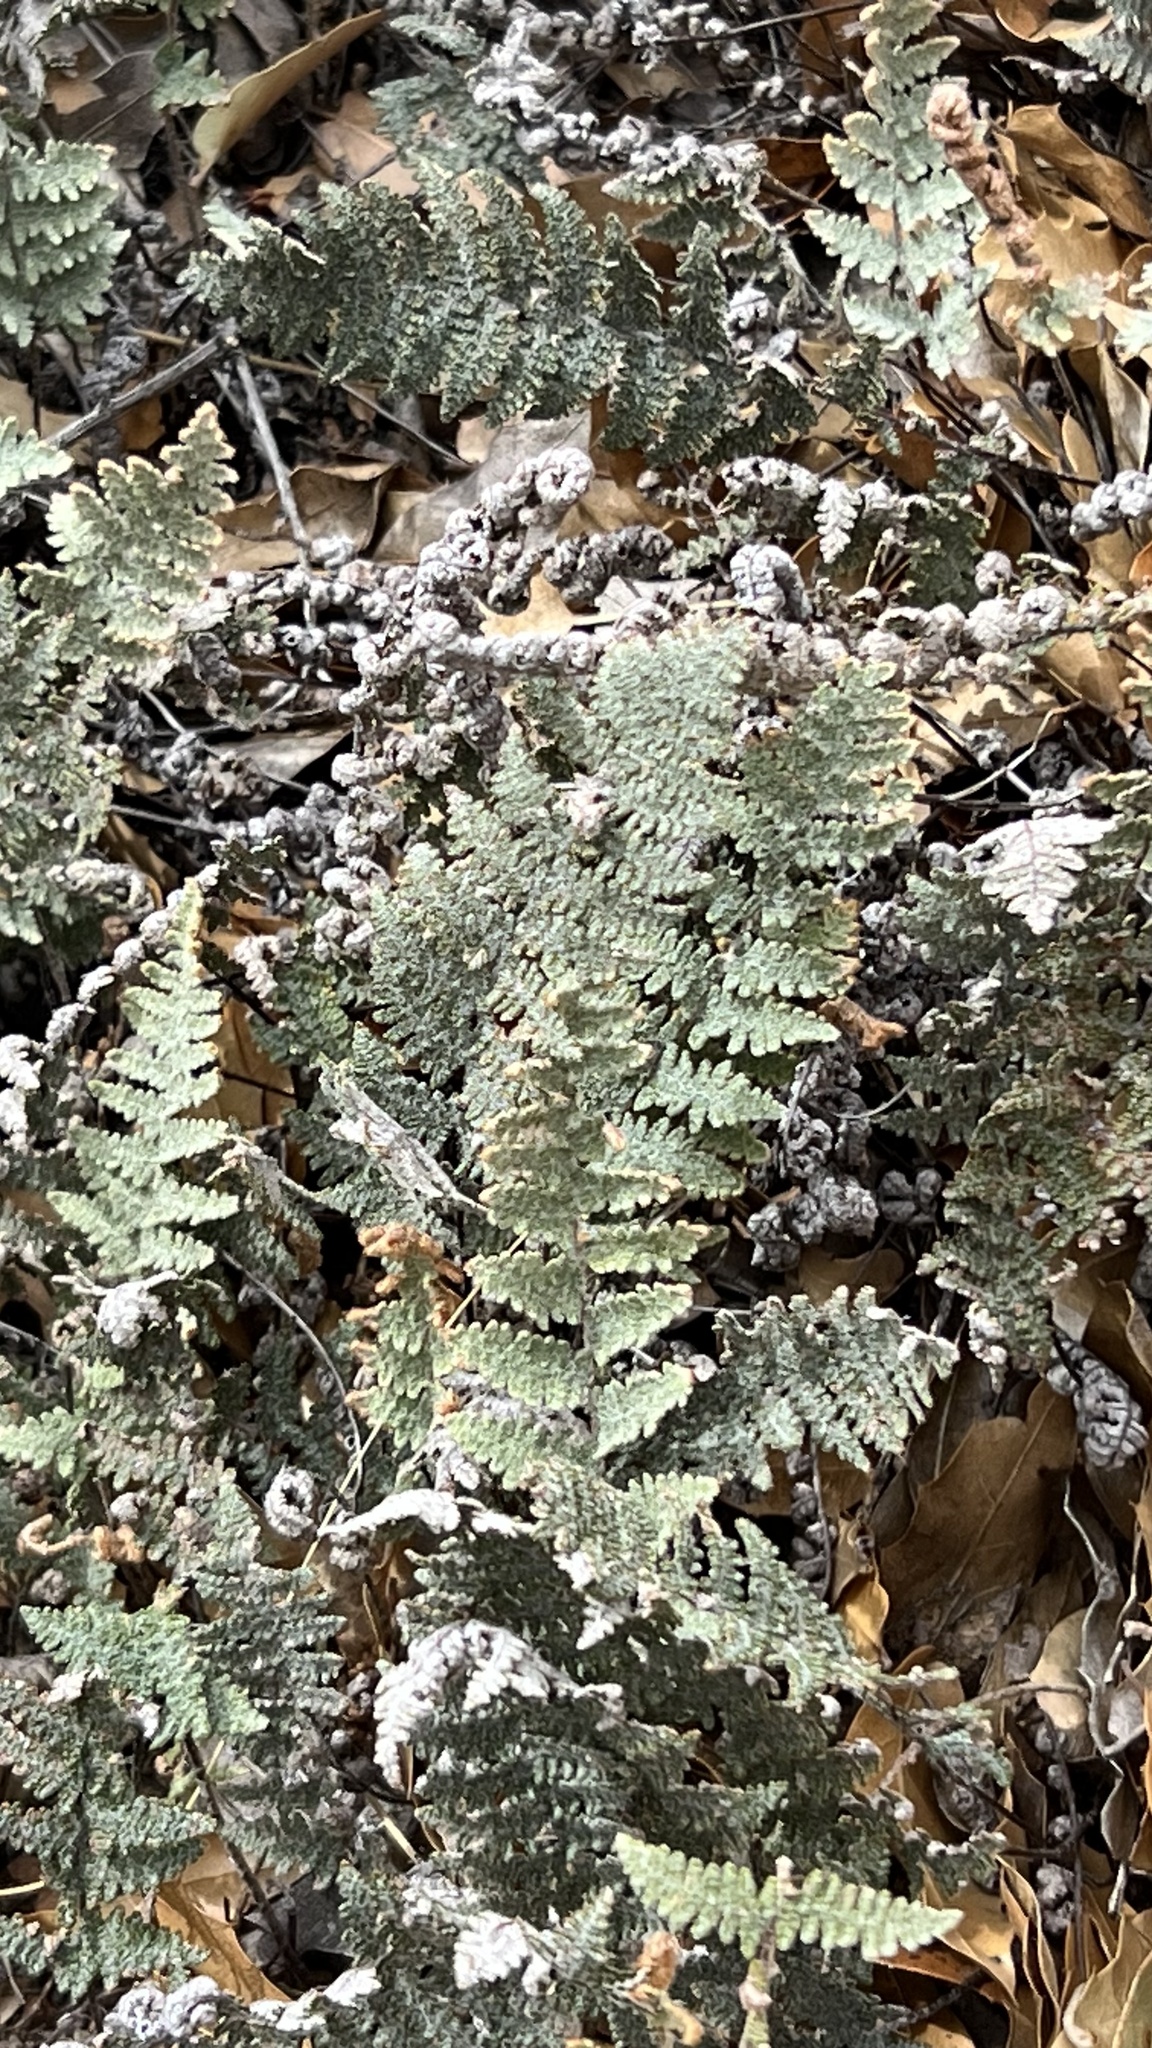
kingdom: Plantae
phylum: Tracheophyta
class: Polypodiopsida
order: Polypodiales
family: Pteridaceae
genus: Myriopteris
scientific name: Myriopteris lindheimeri
